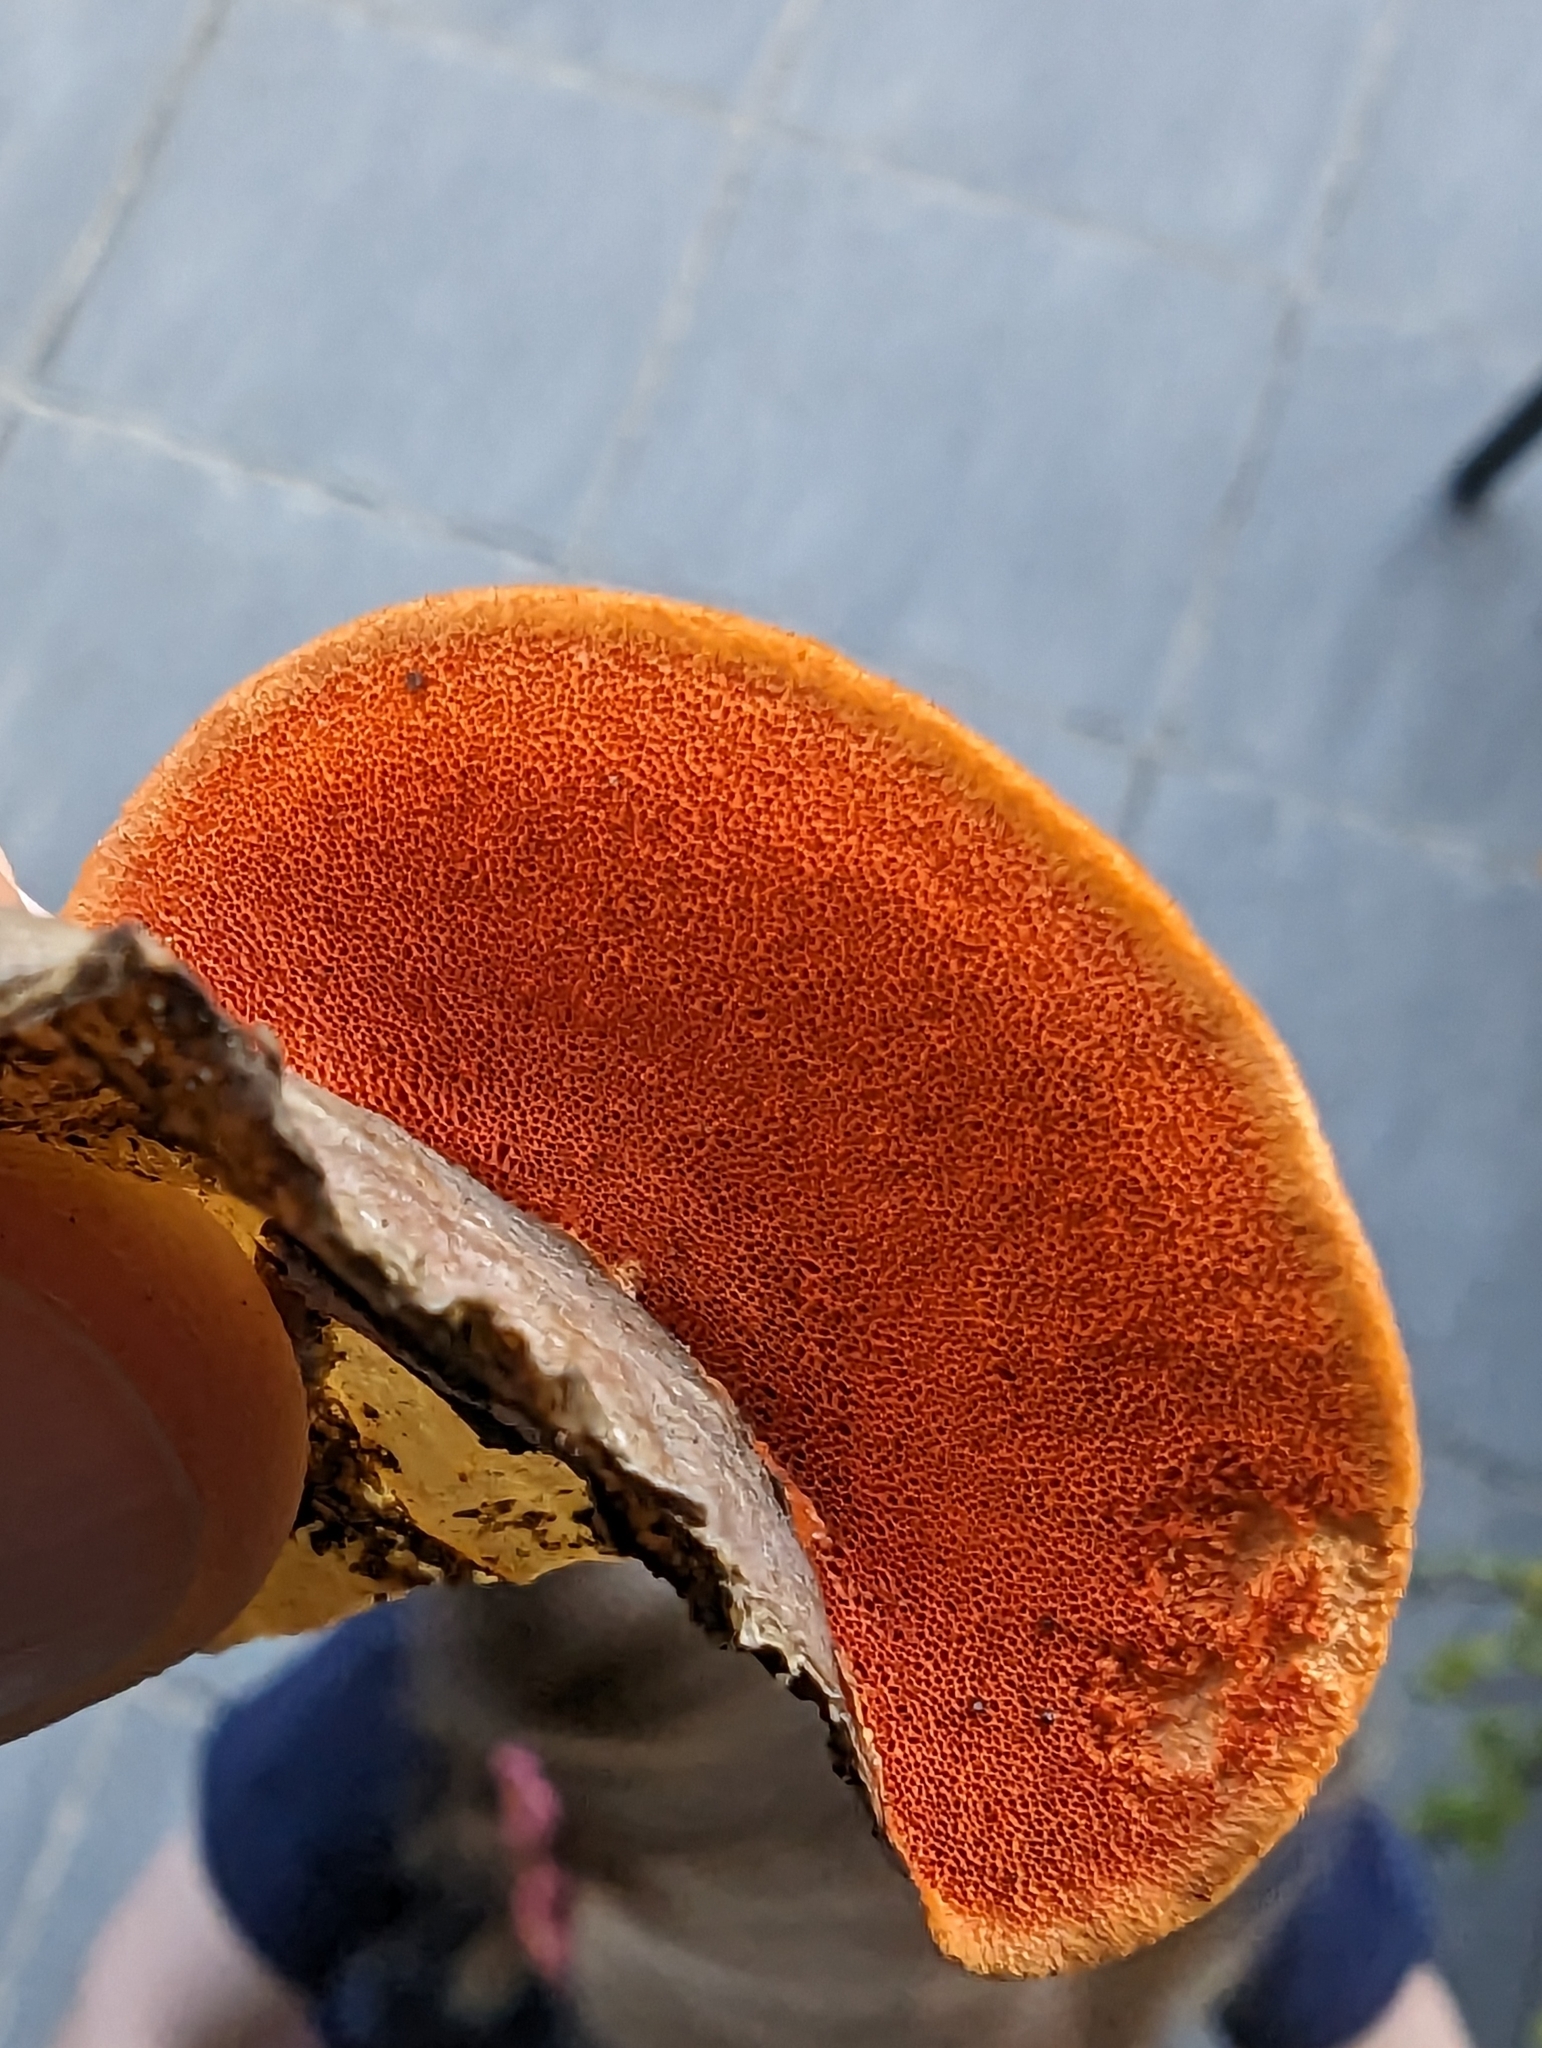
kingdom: Fungi
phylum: Basidiomycota
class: Agaricomycetes
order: Polyporales
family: Polyporaceae
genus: Trametes
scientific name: Trametes coccinea
